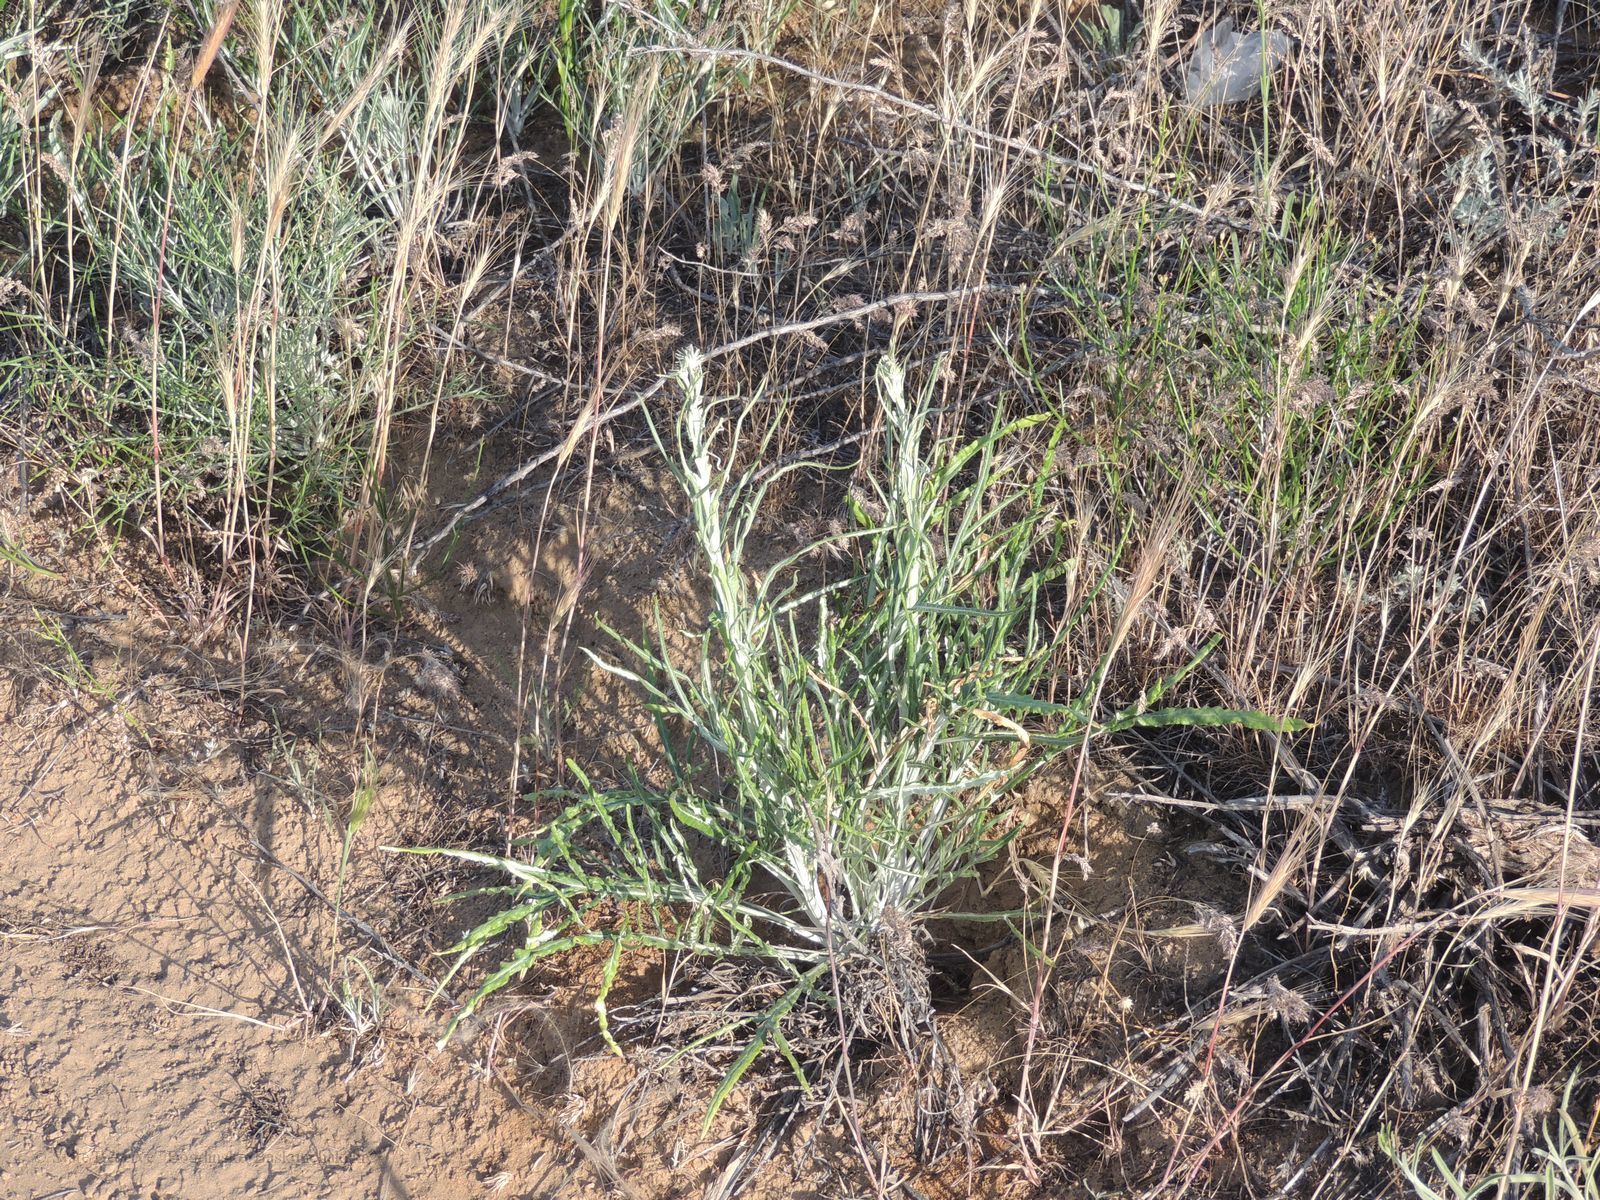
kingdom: Plantae
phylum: Tracheophyta
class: Magnoliopsida
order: Asterales
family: Asteraceae
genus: Jurinea
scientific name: Jurinea polyclonos
